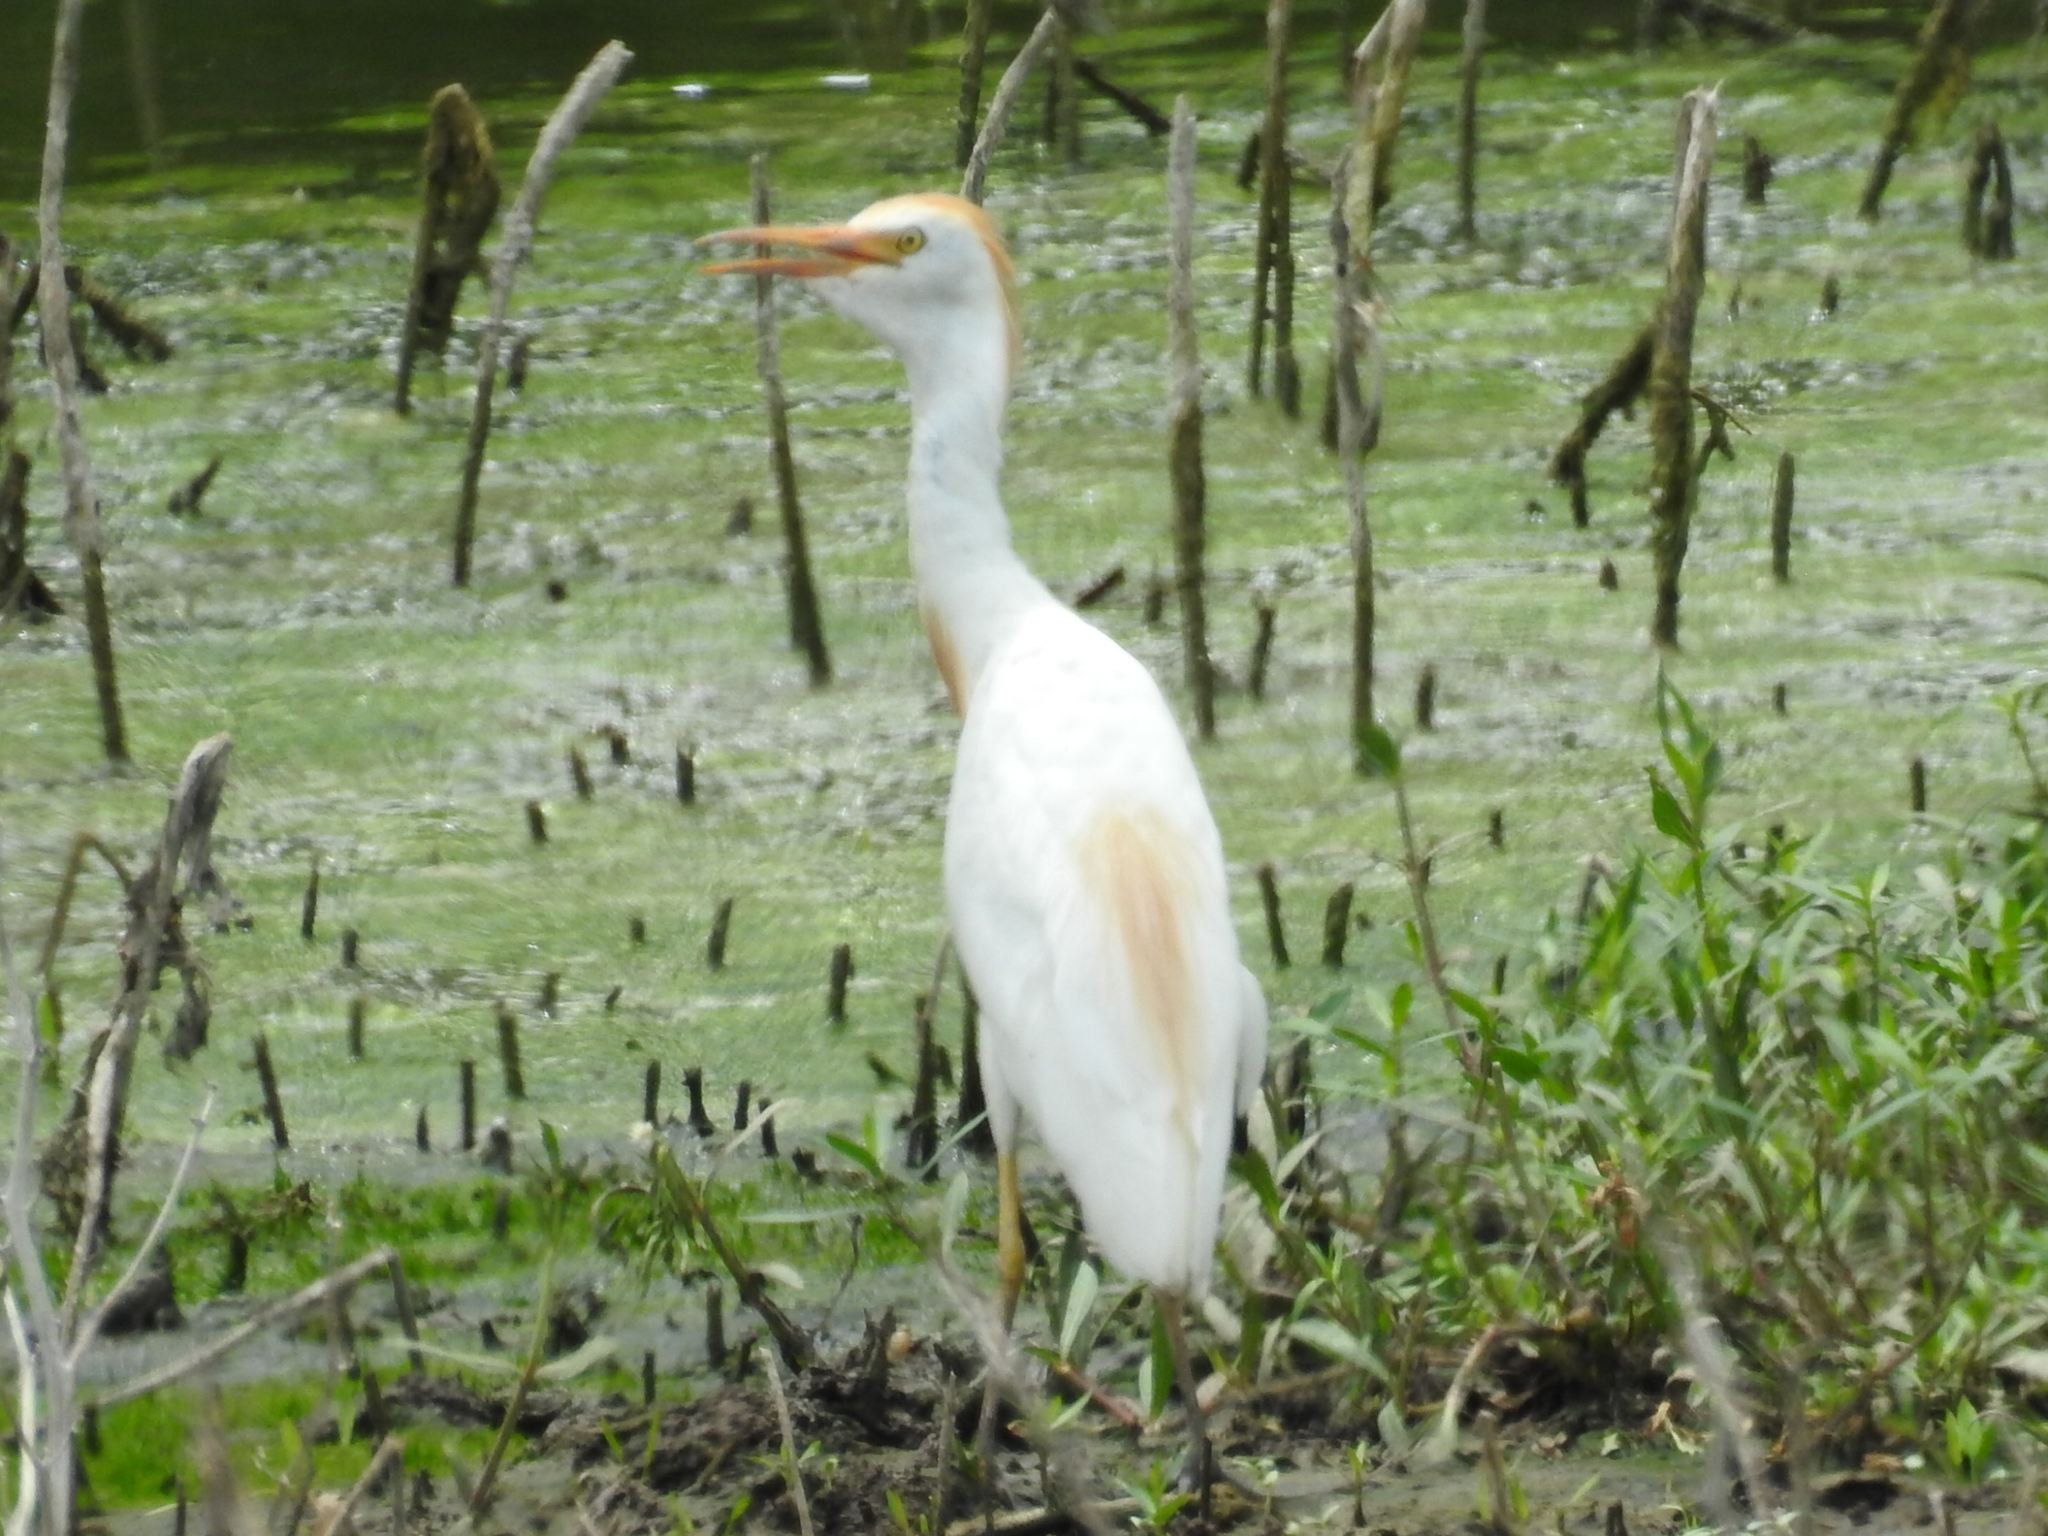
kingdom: Animalia
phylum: Chordata
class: Aves
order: Pelecaniformes
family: Ardeidae
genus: Bubulcus
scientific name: Bubulcus ibis
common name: Cattle egret
